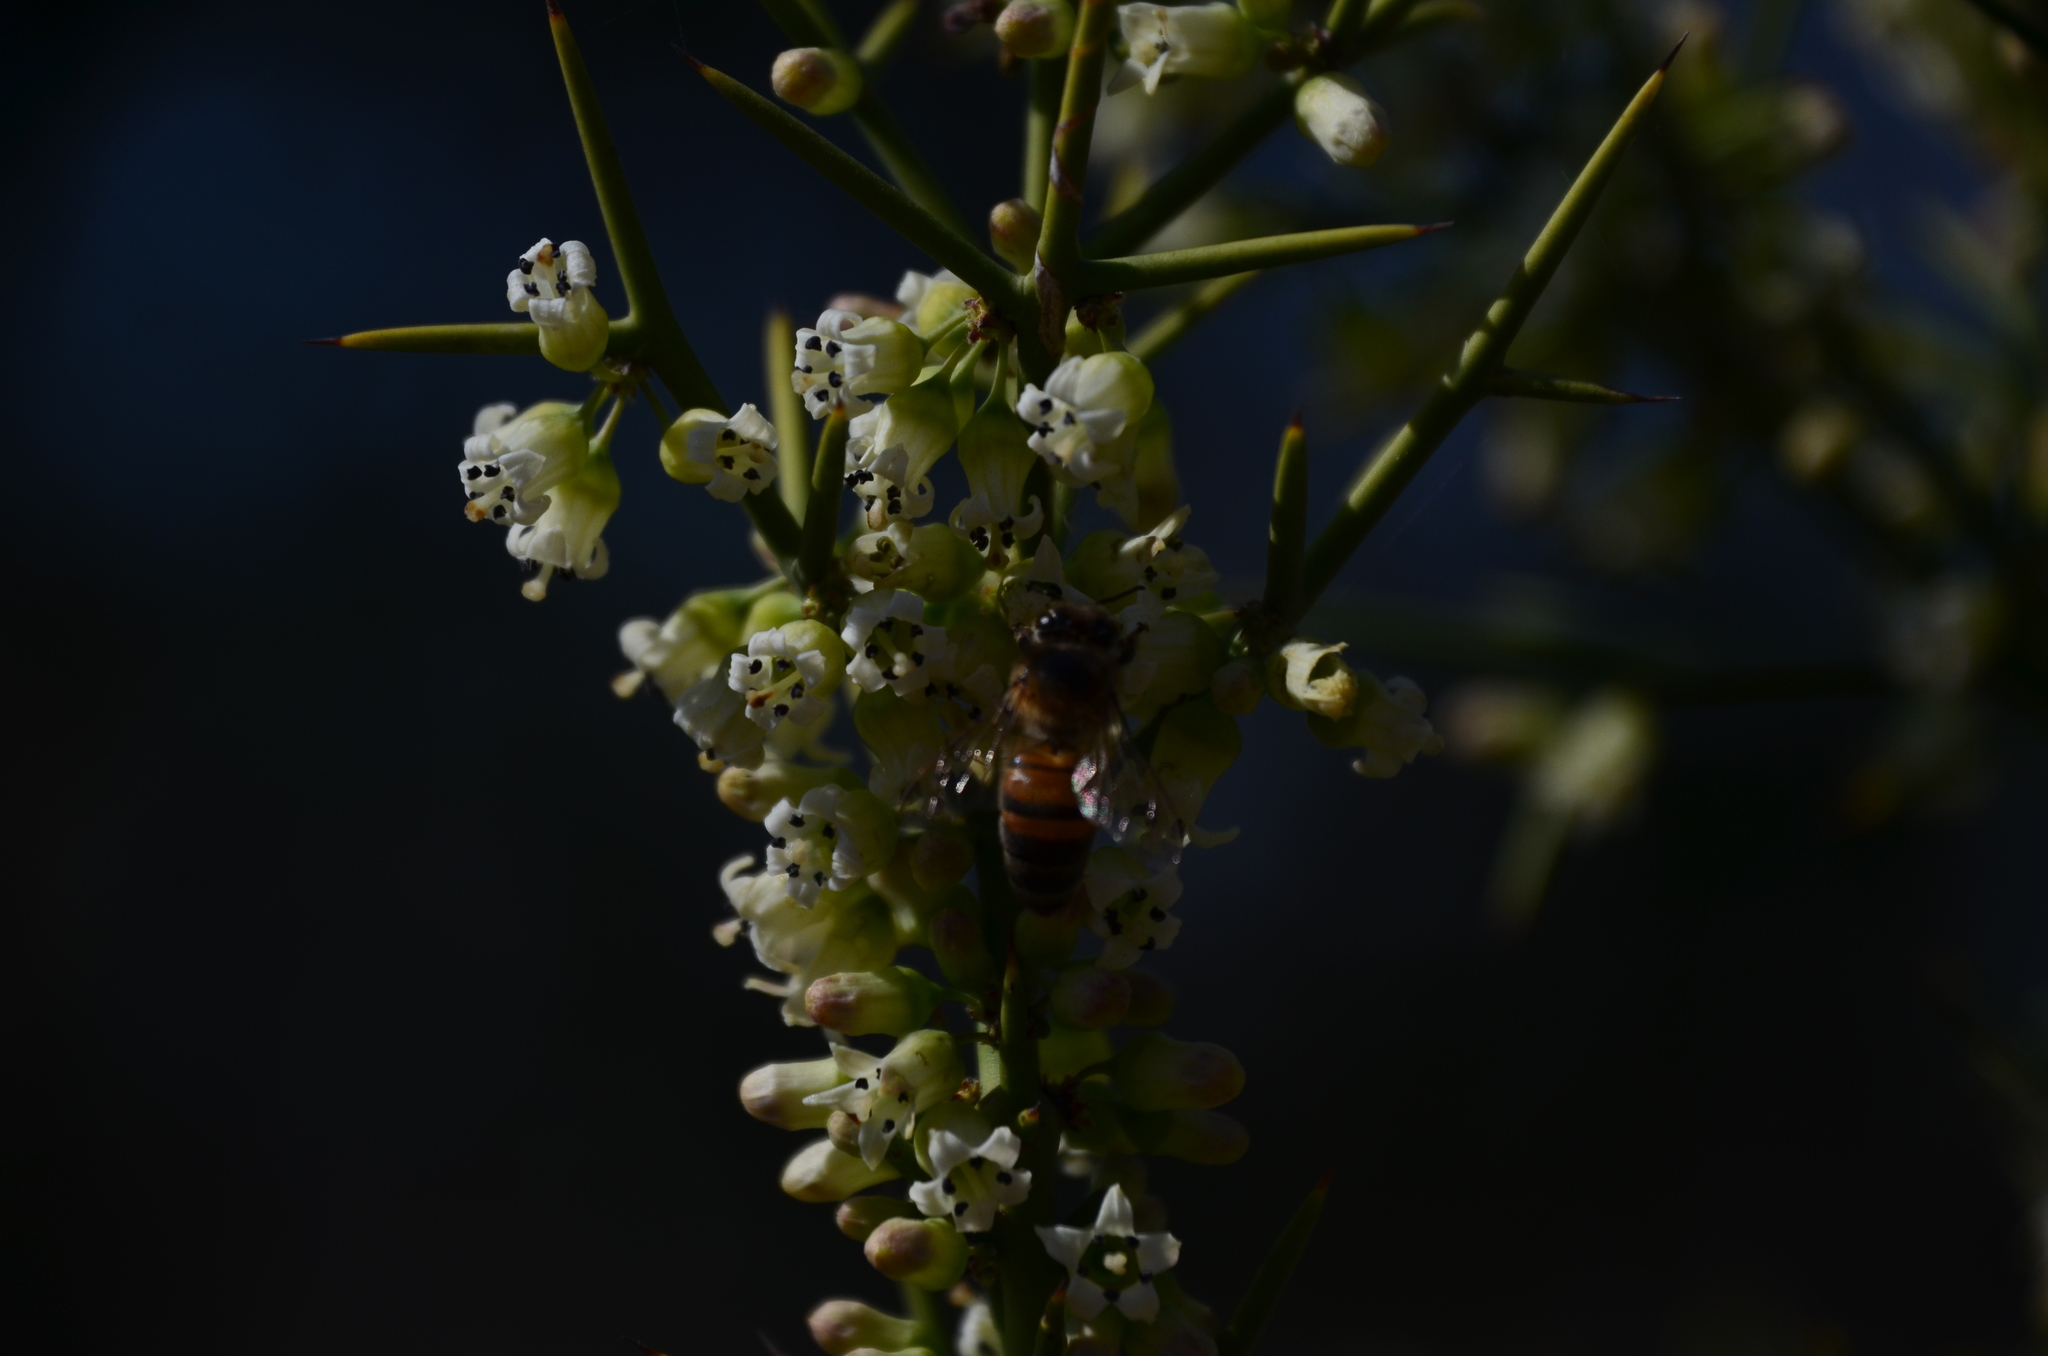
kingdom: Animalia
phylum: Arthropoda
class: Insecta
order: Hymenoptera
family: Apidae
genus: Apis
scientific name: Apis mellifera
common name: Honey bee
